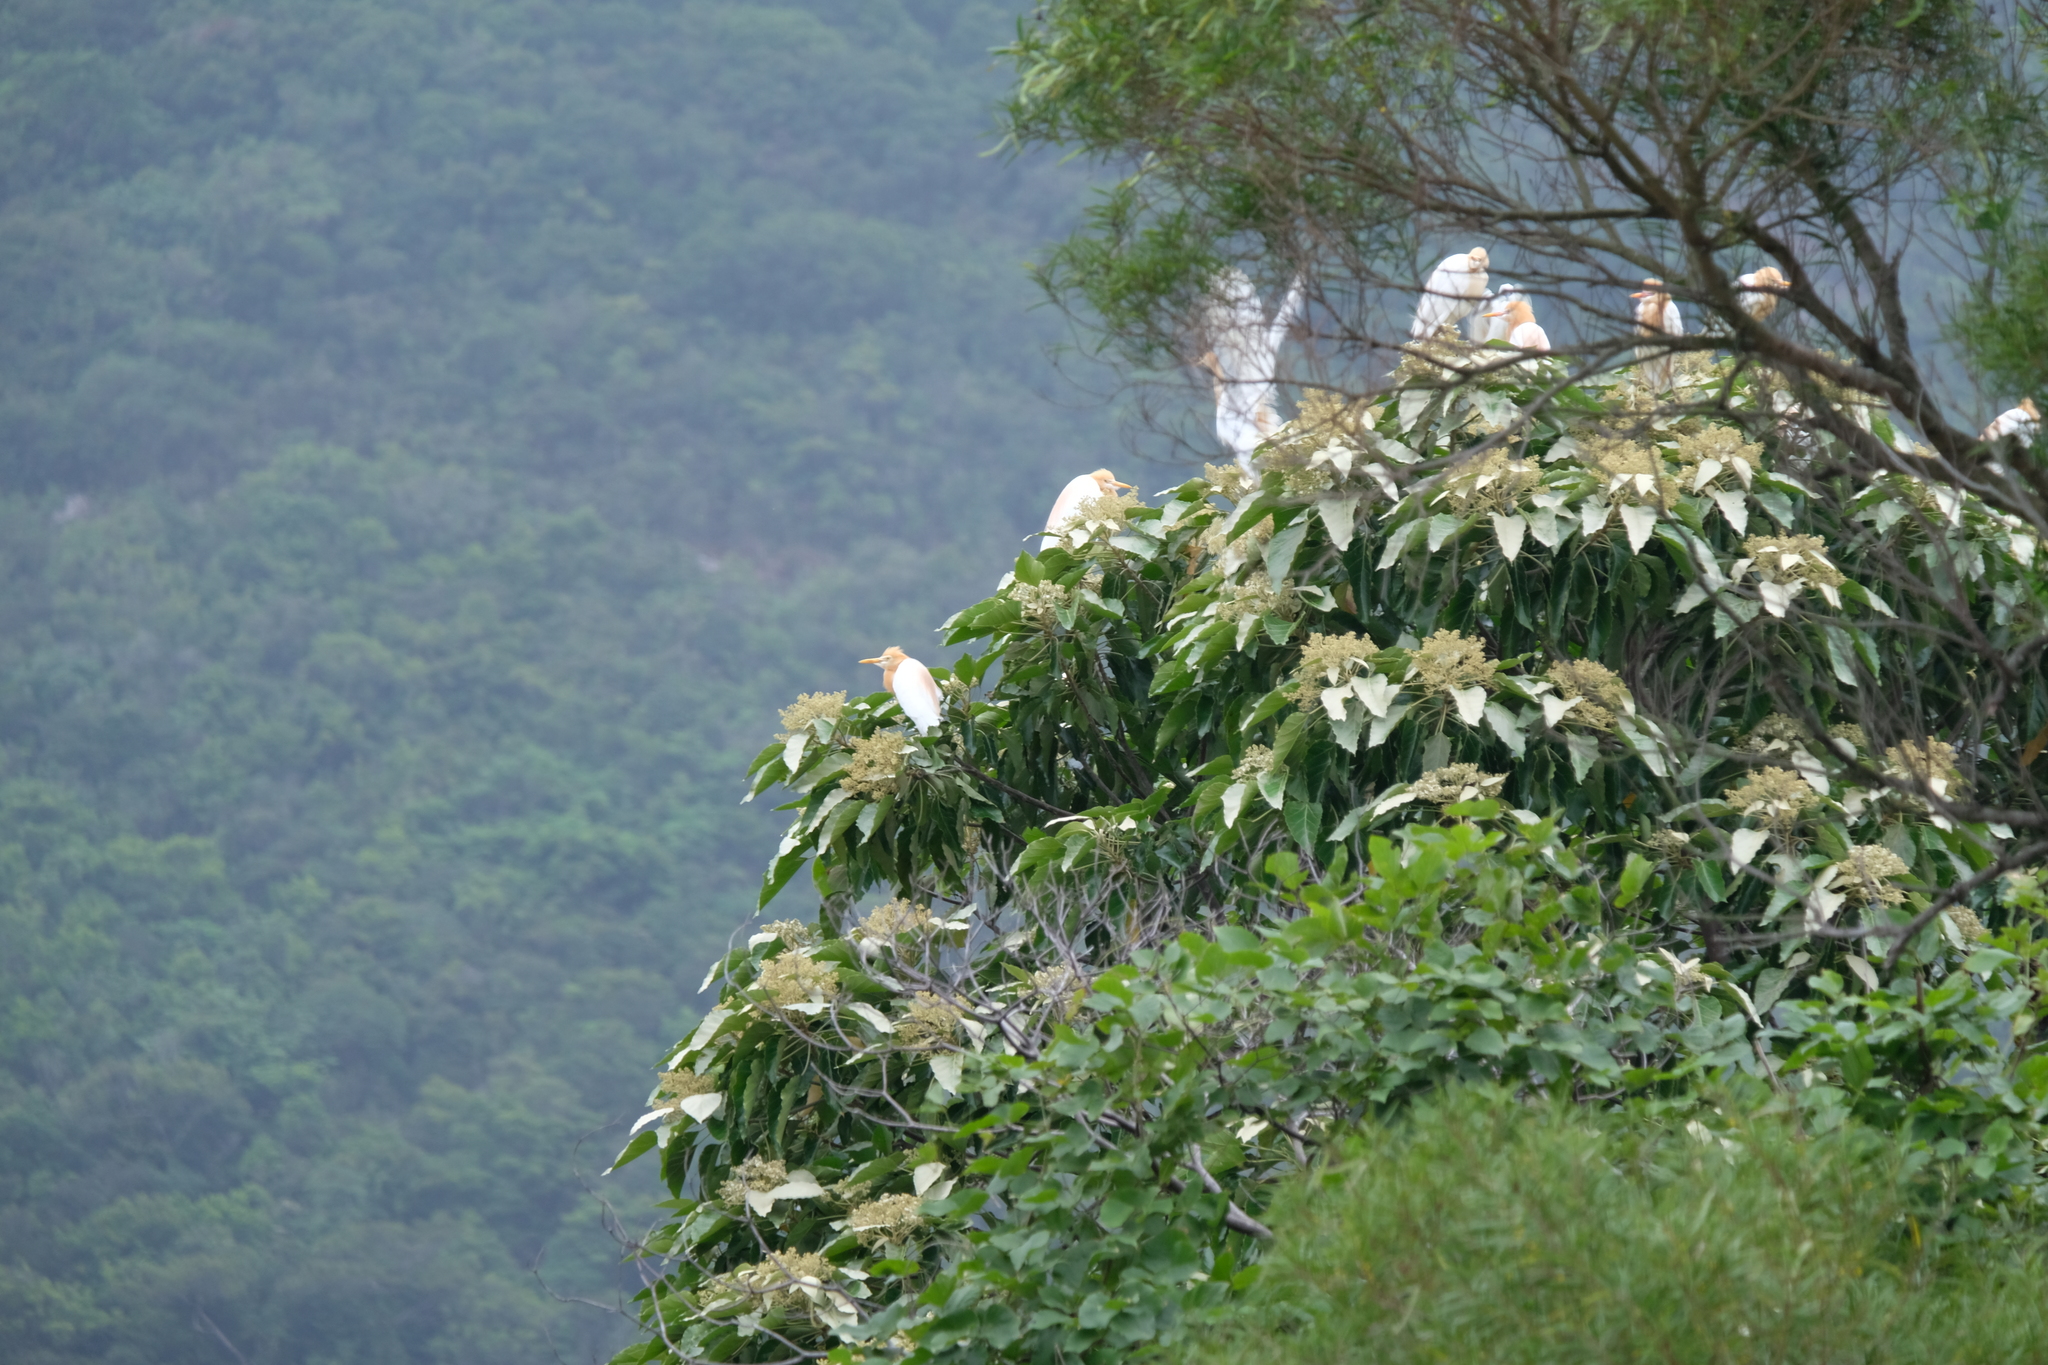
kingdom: Animalia
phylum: Chordata
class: Aves
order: Pelecaniformes
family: Ardeidae
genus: Bubulcus
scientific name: Bubulcus coromandus
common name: Eastern cattle egret
